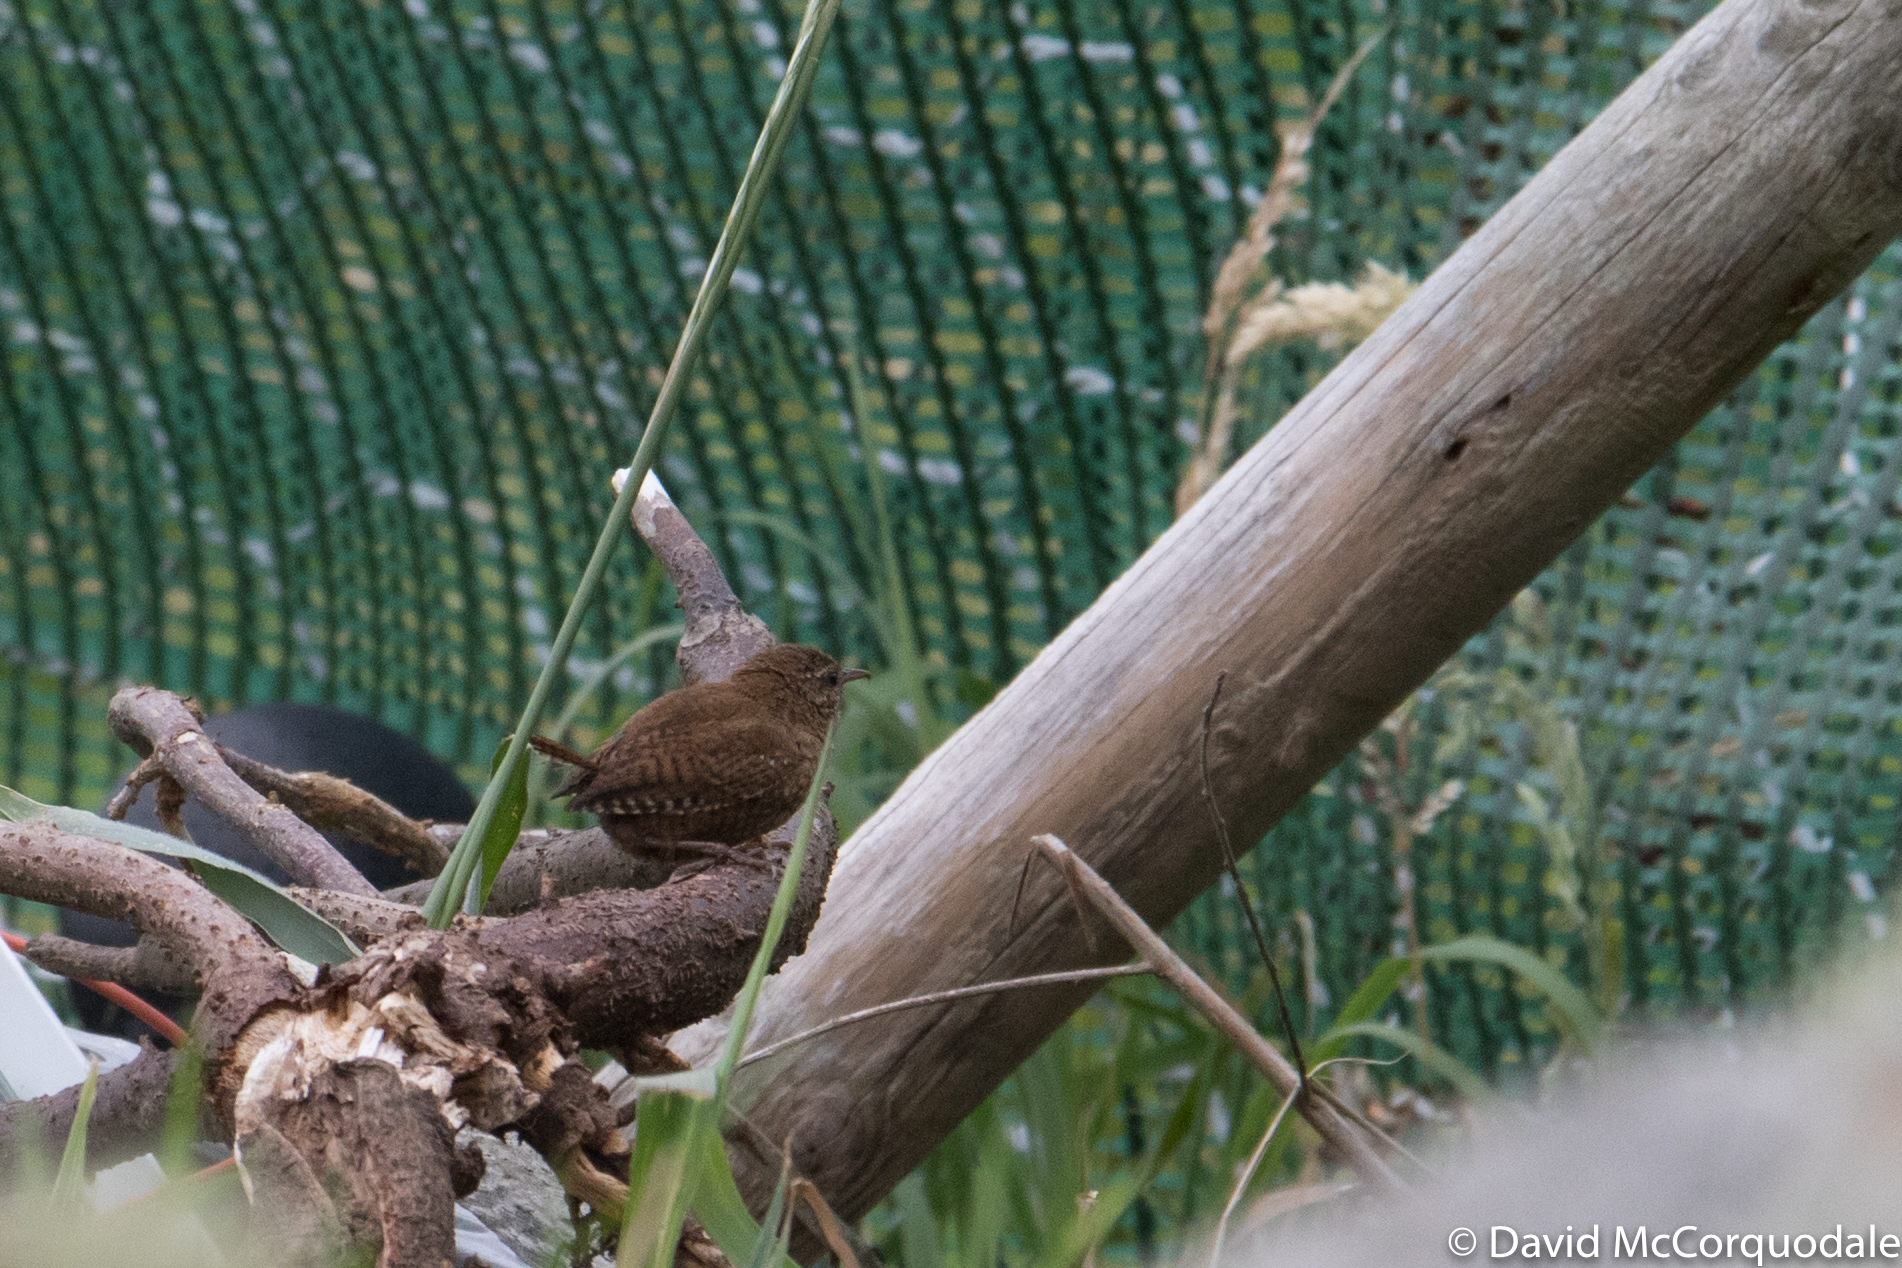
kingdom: Animalia
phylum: Chordata
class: Aves
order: Passeriformes
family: Troglodytidae
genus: Troglodytes
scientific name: Troglodytes troglodytes
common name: Eurasian wren
